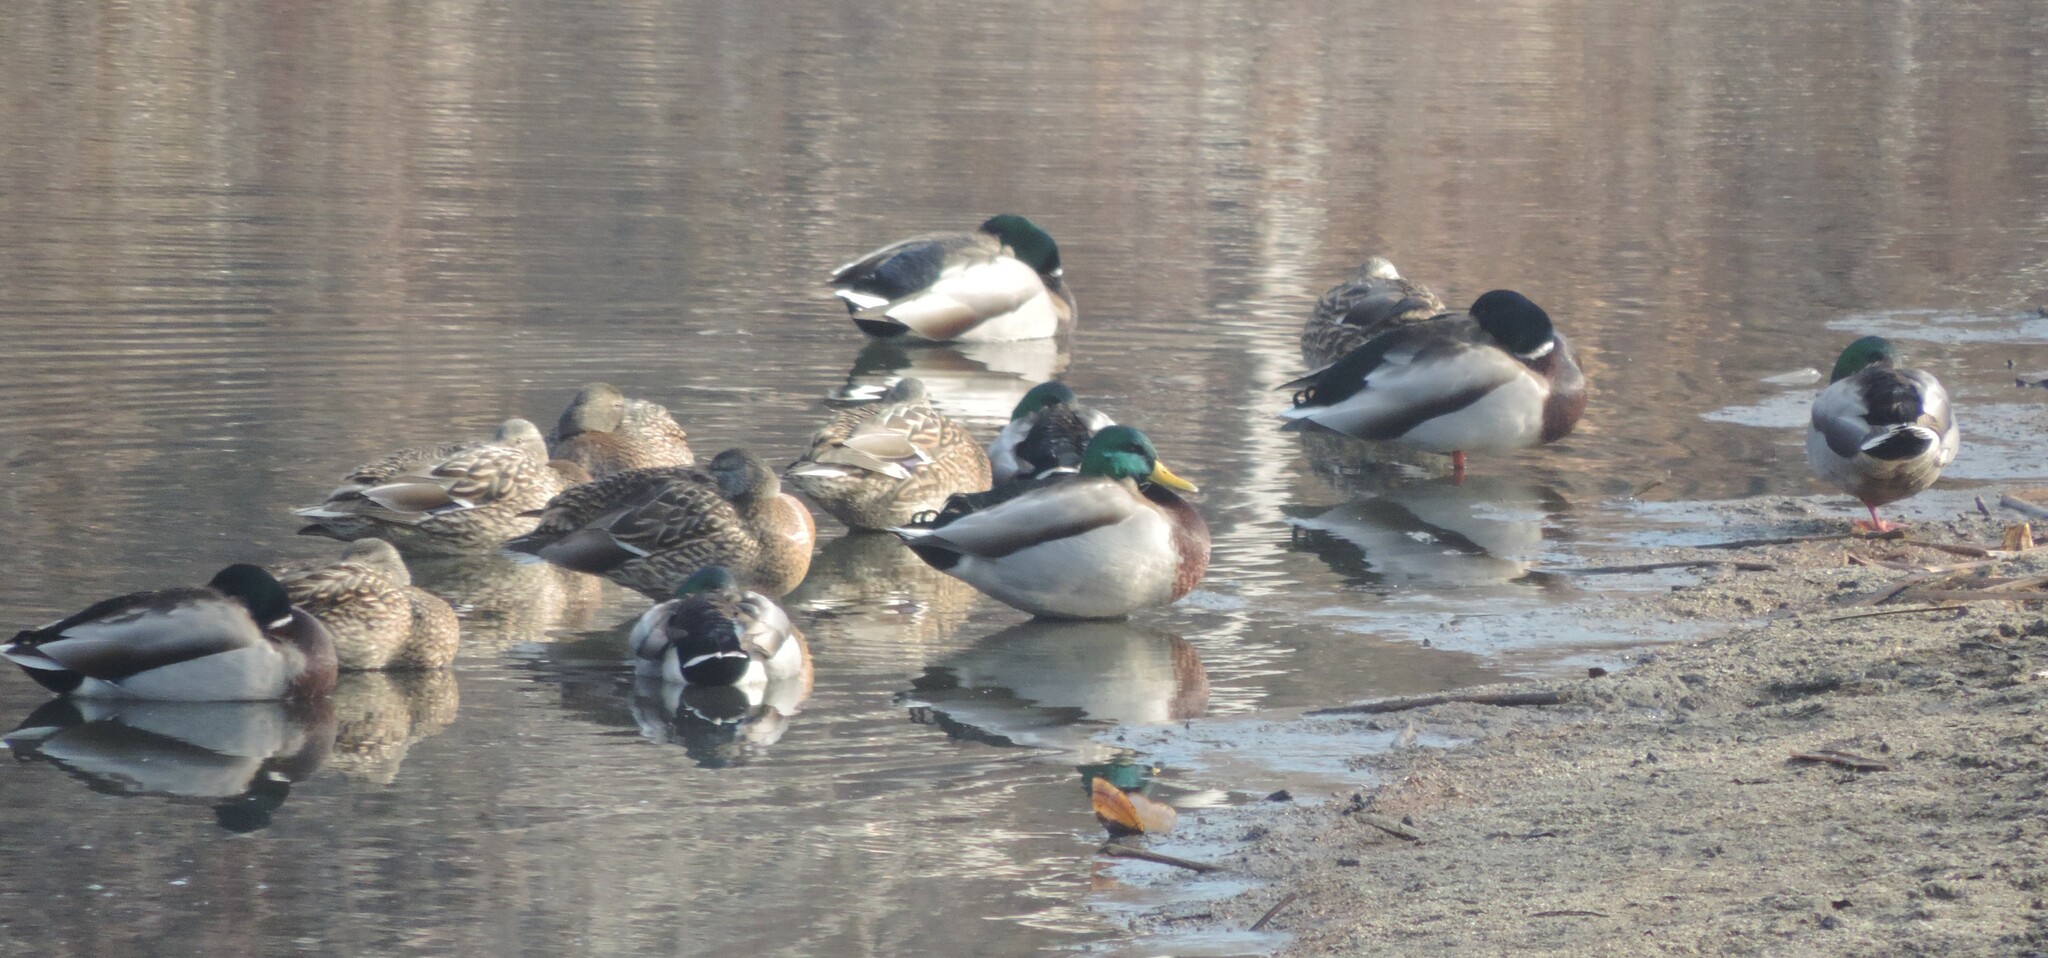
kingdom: Animalia
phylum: Chordata
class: Aves
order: Anseriformes
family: Anatidae
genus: Anas
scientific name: Anas platyrhynchos
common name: Mallard
